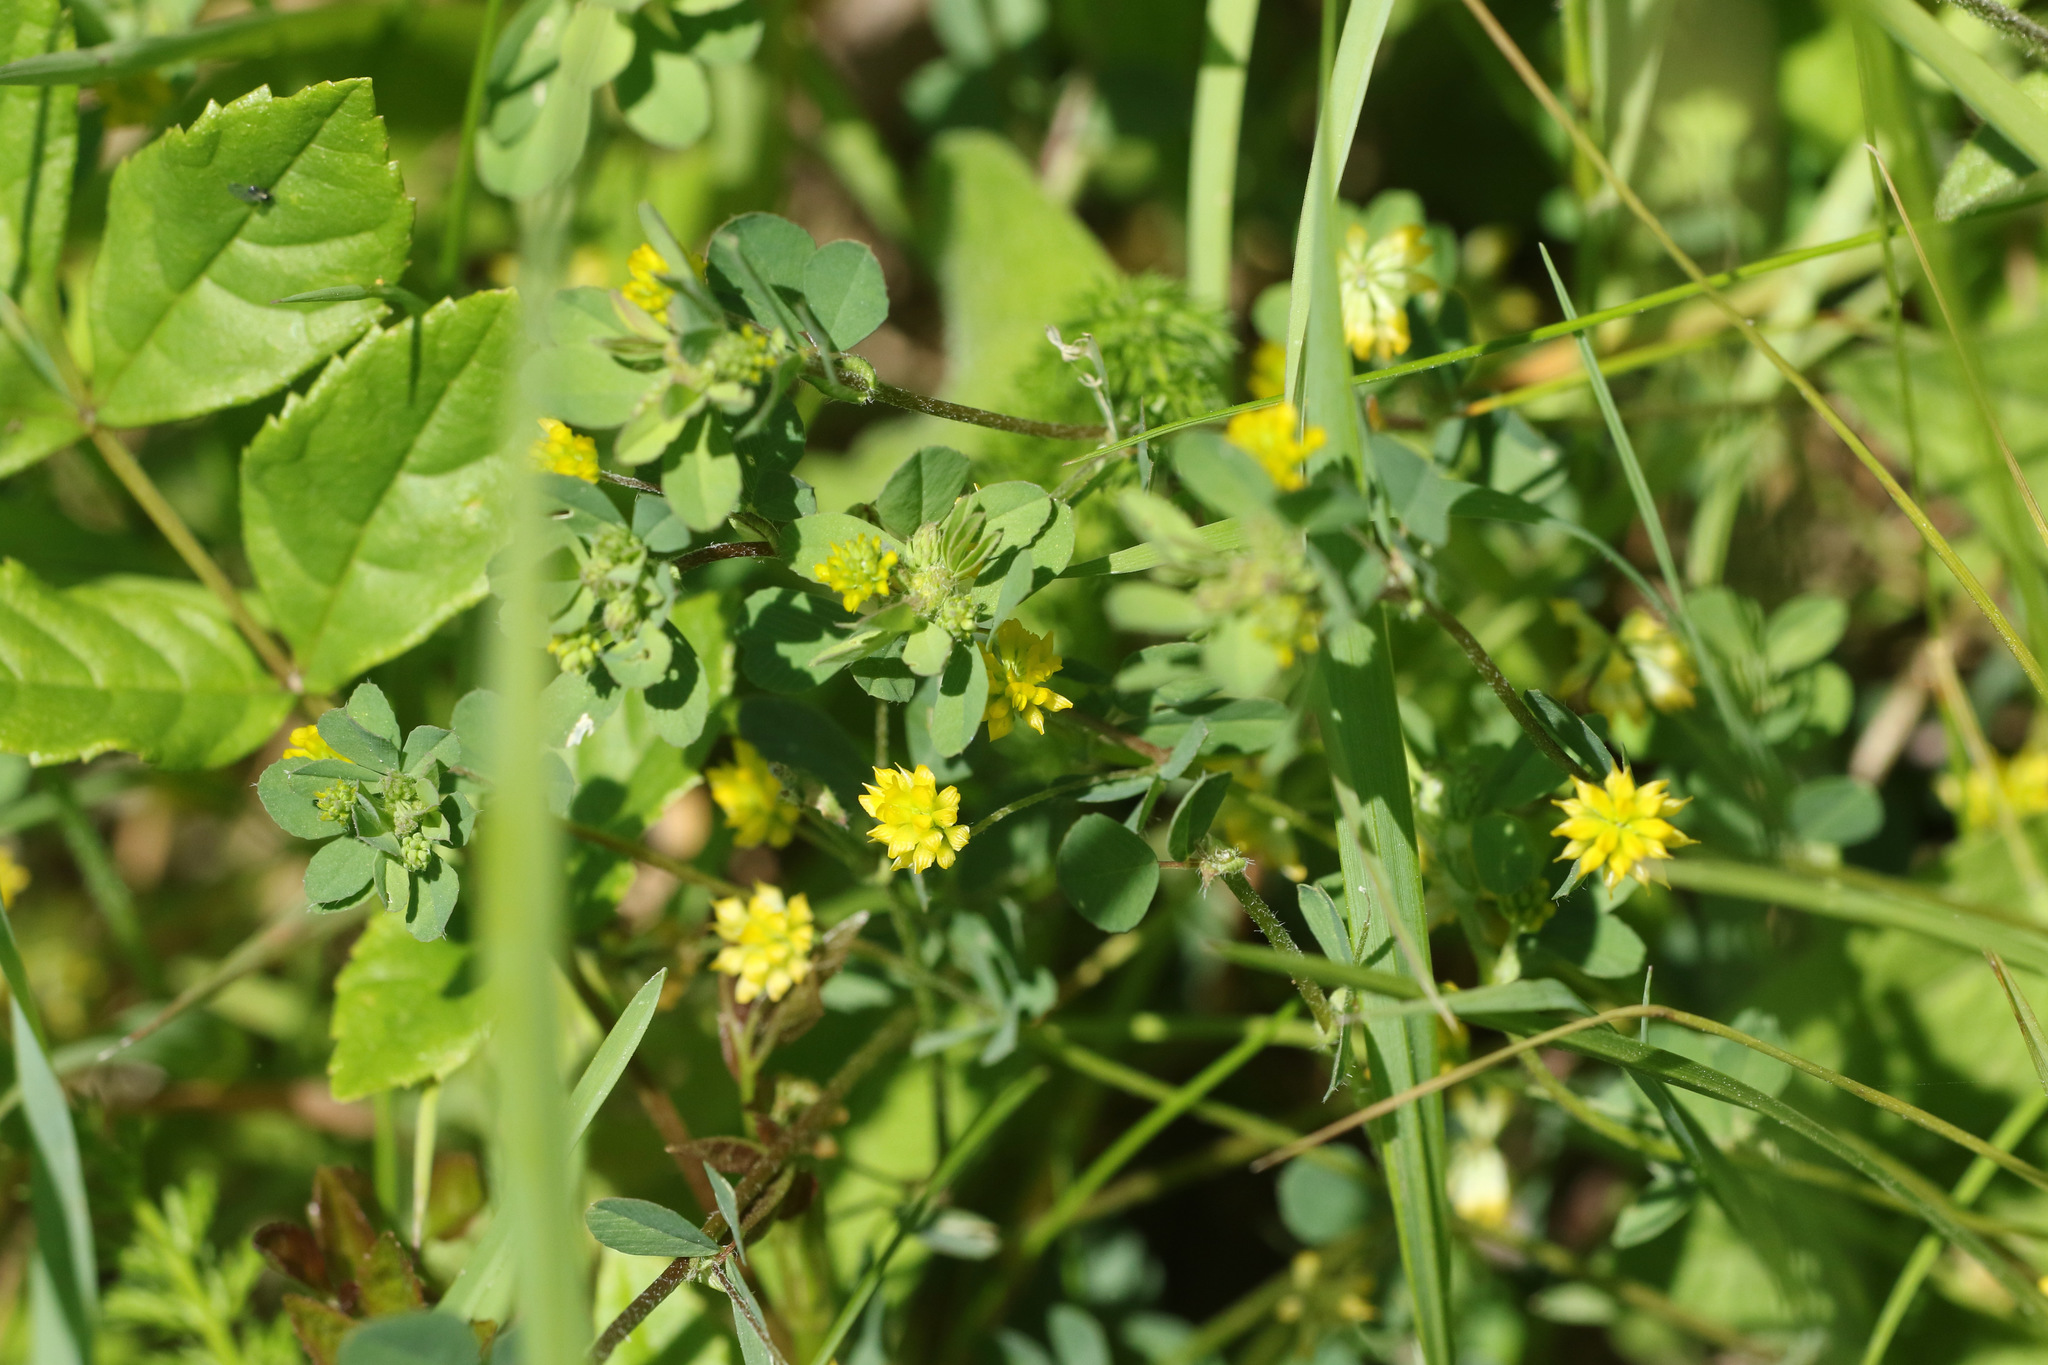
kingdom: Plantae
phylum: Tracheophyta
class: Magnoliopsida
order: Fabales
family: Fabaceae
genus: Trifolium
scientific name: Trifolium dubium
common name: Suckling clover
